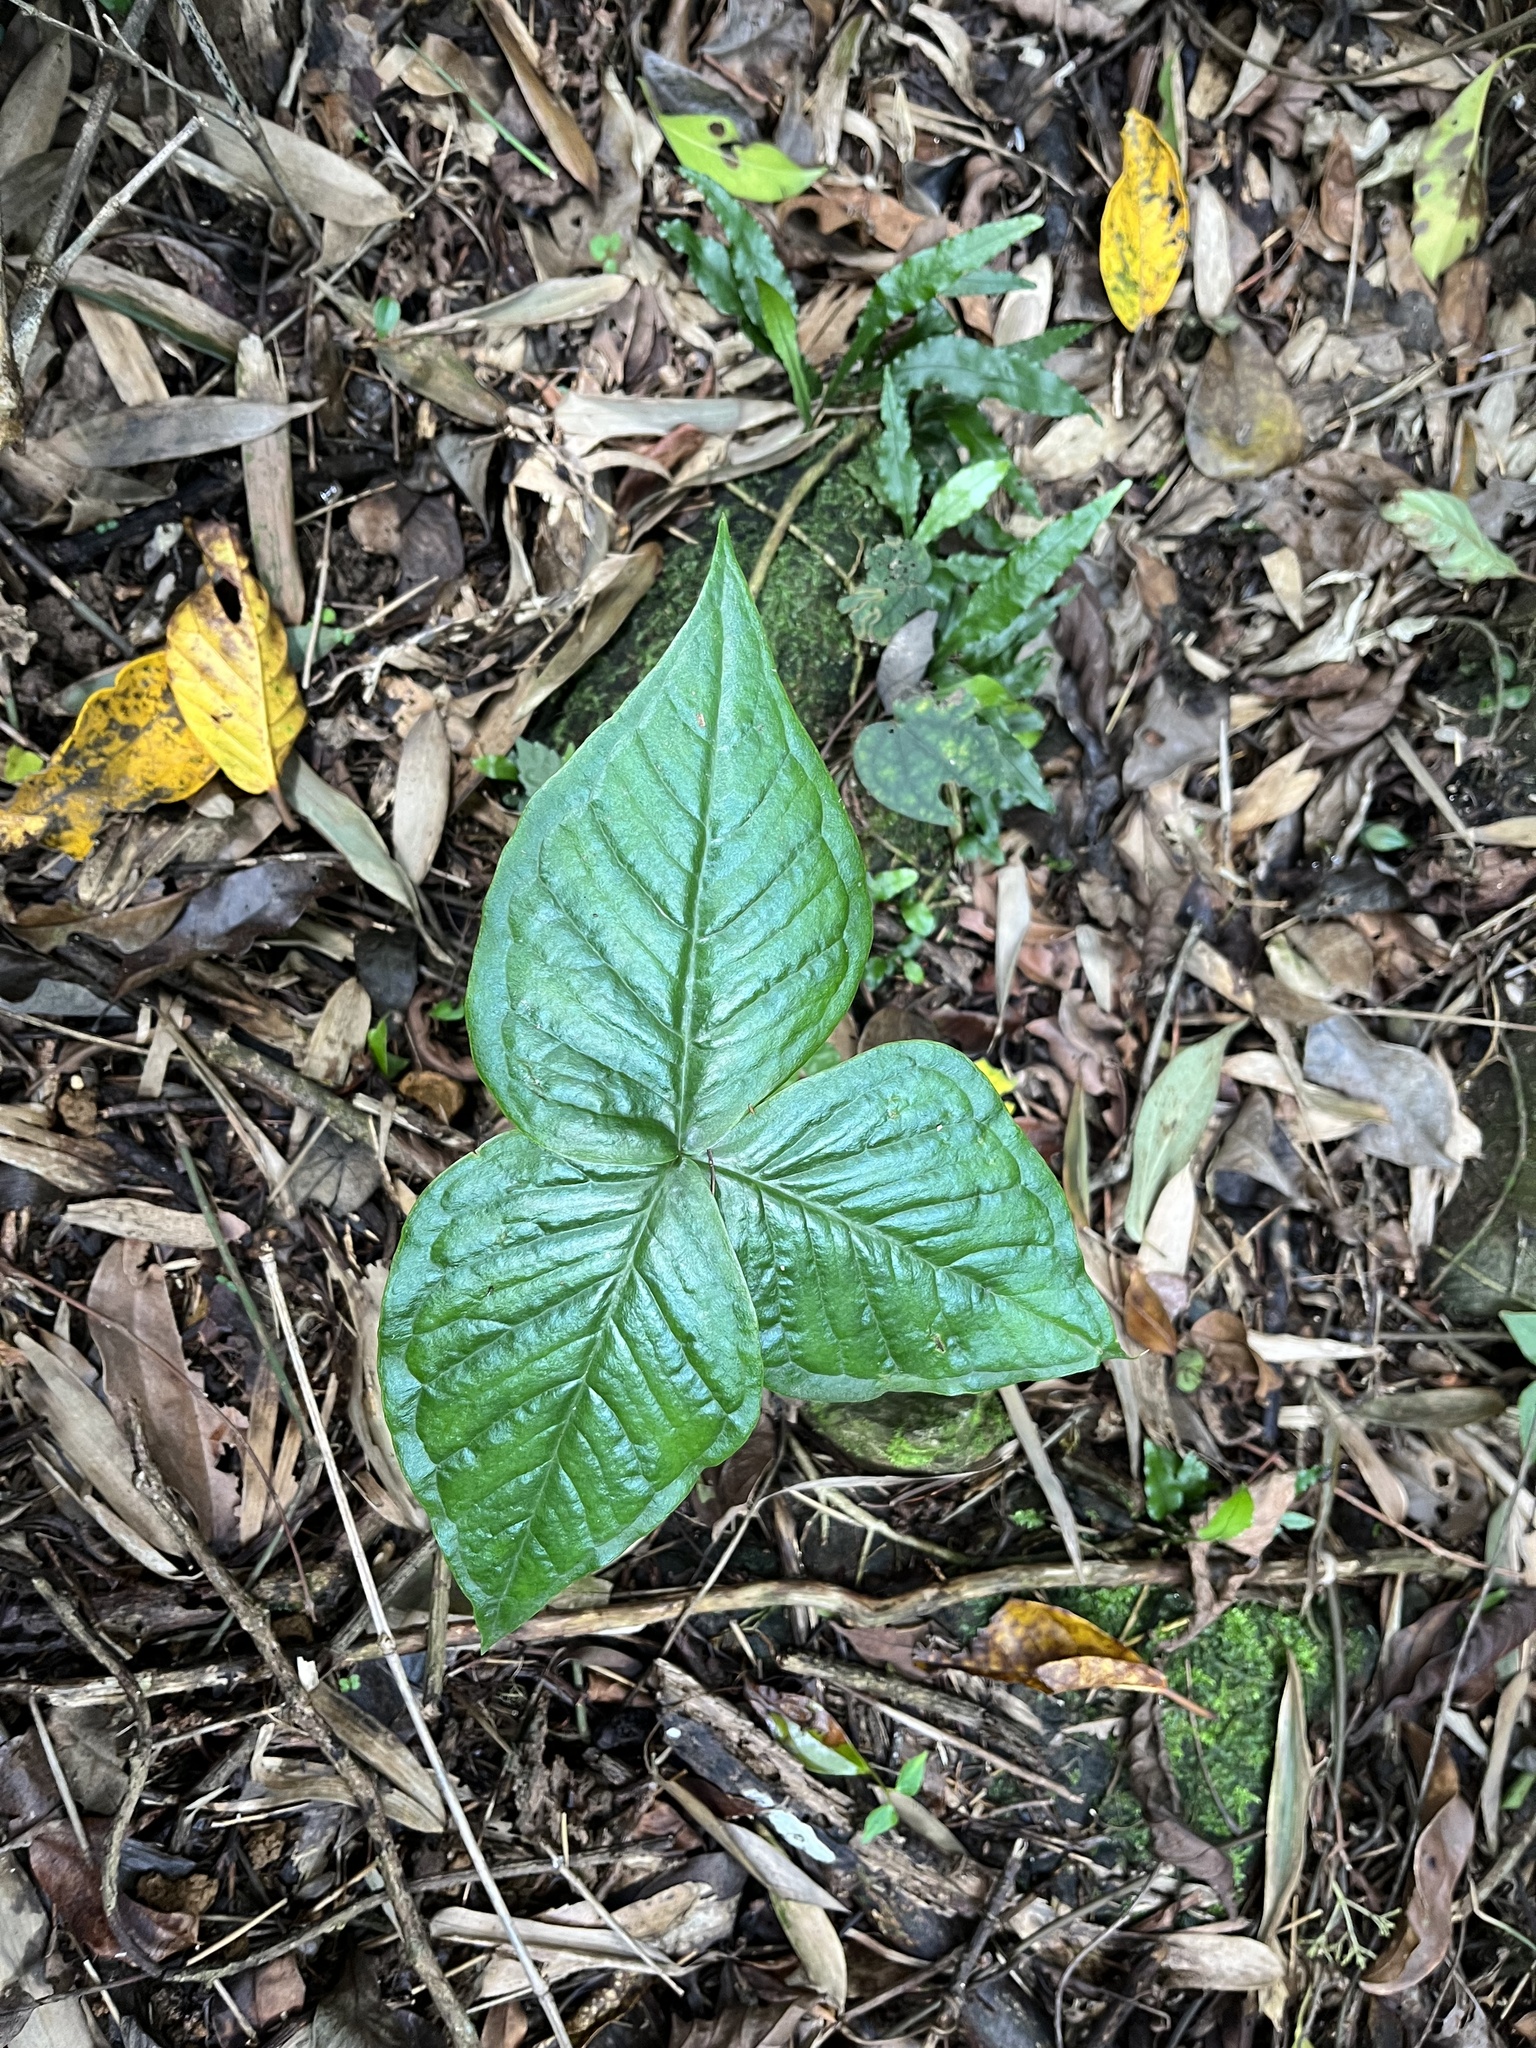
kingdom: Plantae
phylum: Tracheophyta
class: Liliopsida
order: Alismatales
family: Araceae
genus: Arisaema
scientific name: Arisaema ringens
